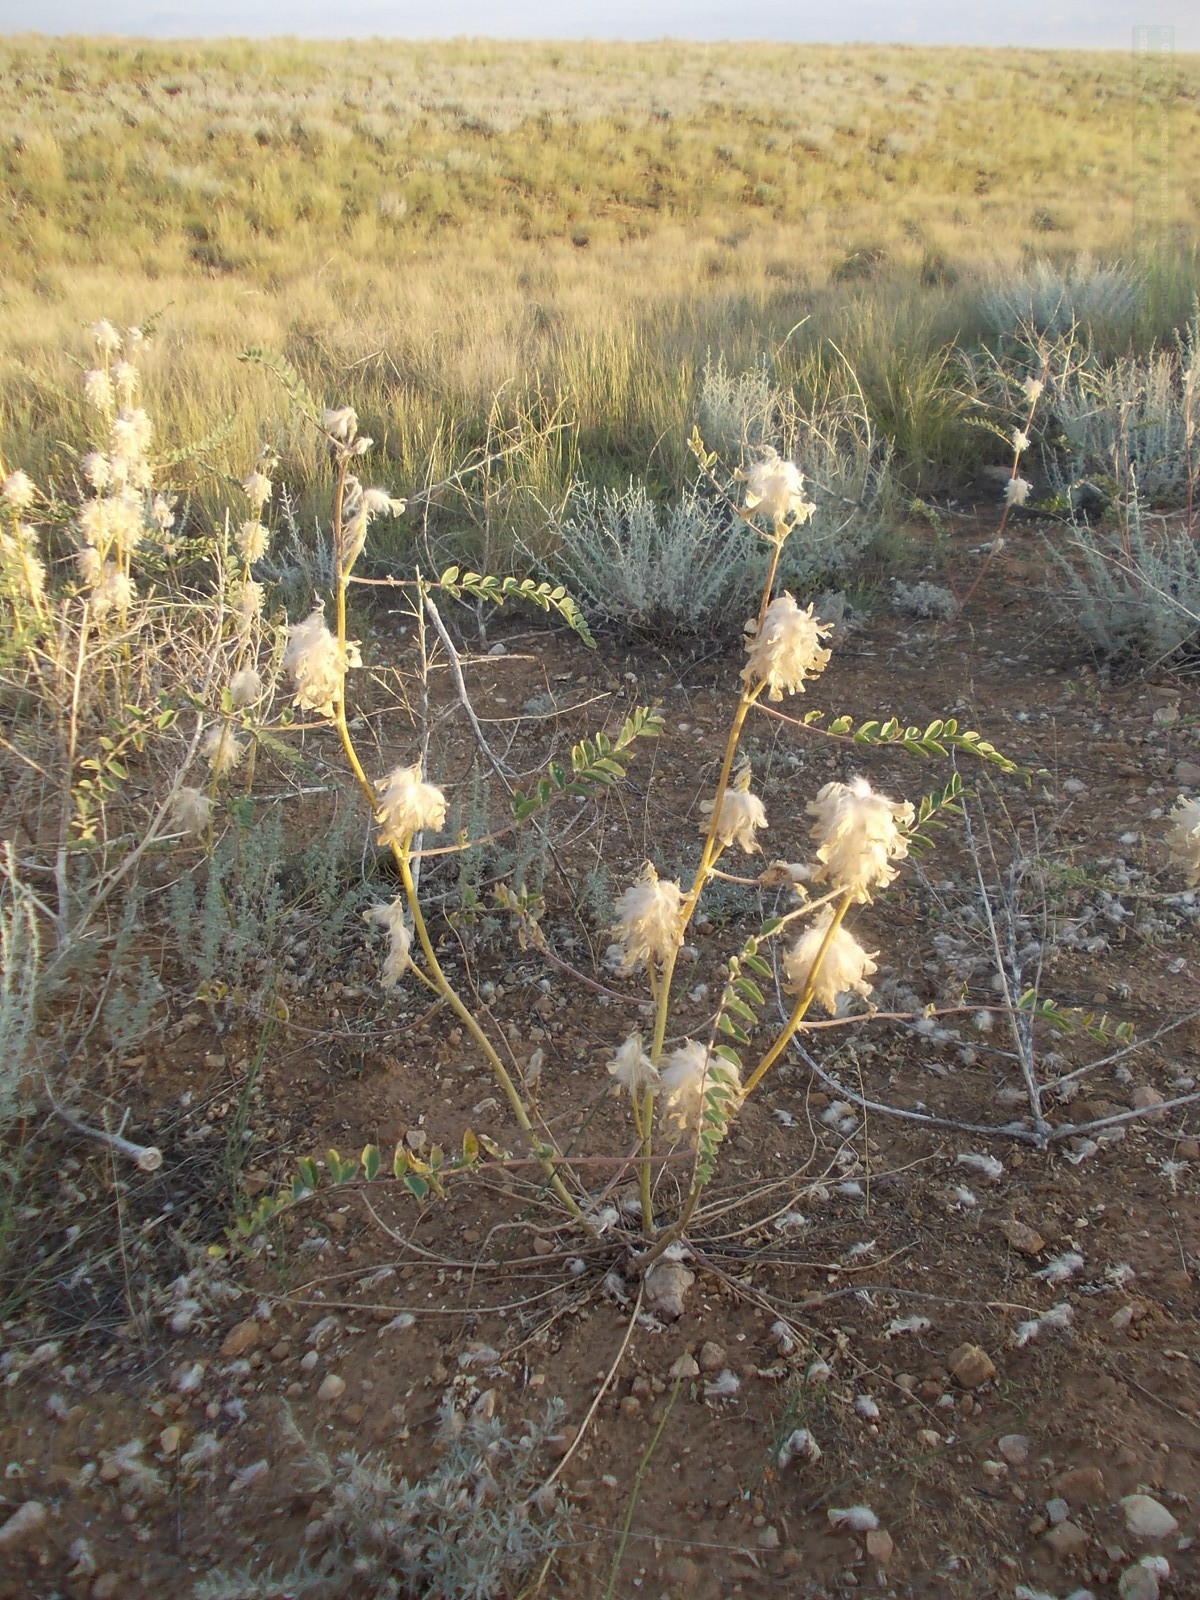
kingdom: Plantae
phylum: Tracheophyta
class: Magnoliopsida
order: Fabales
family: Fabaceae
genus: Astragalus
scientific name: Astragalus vulpinus
